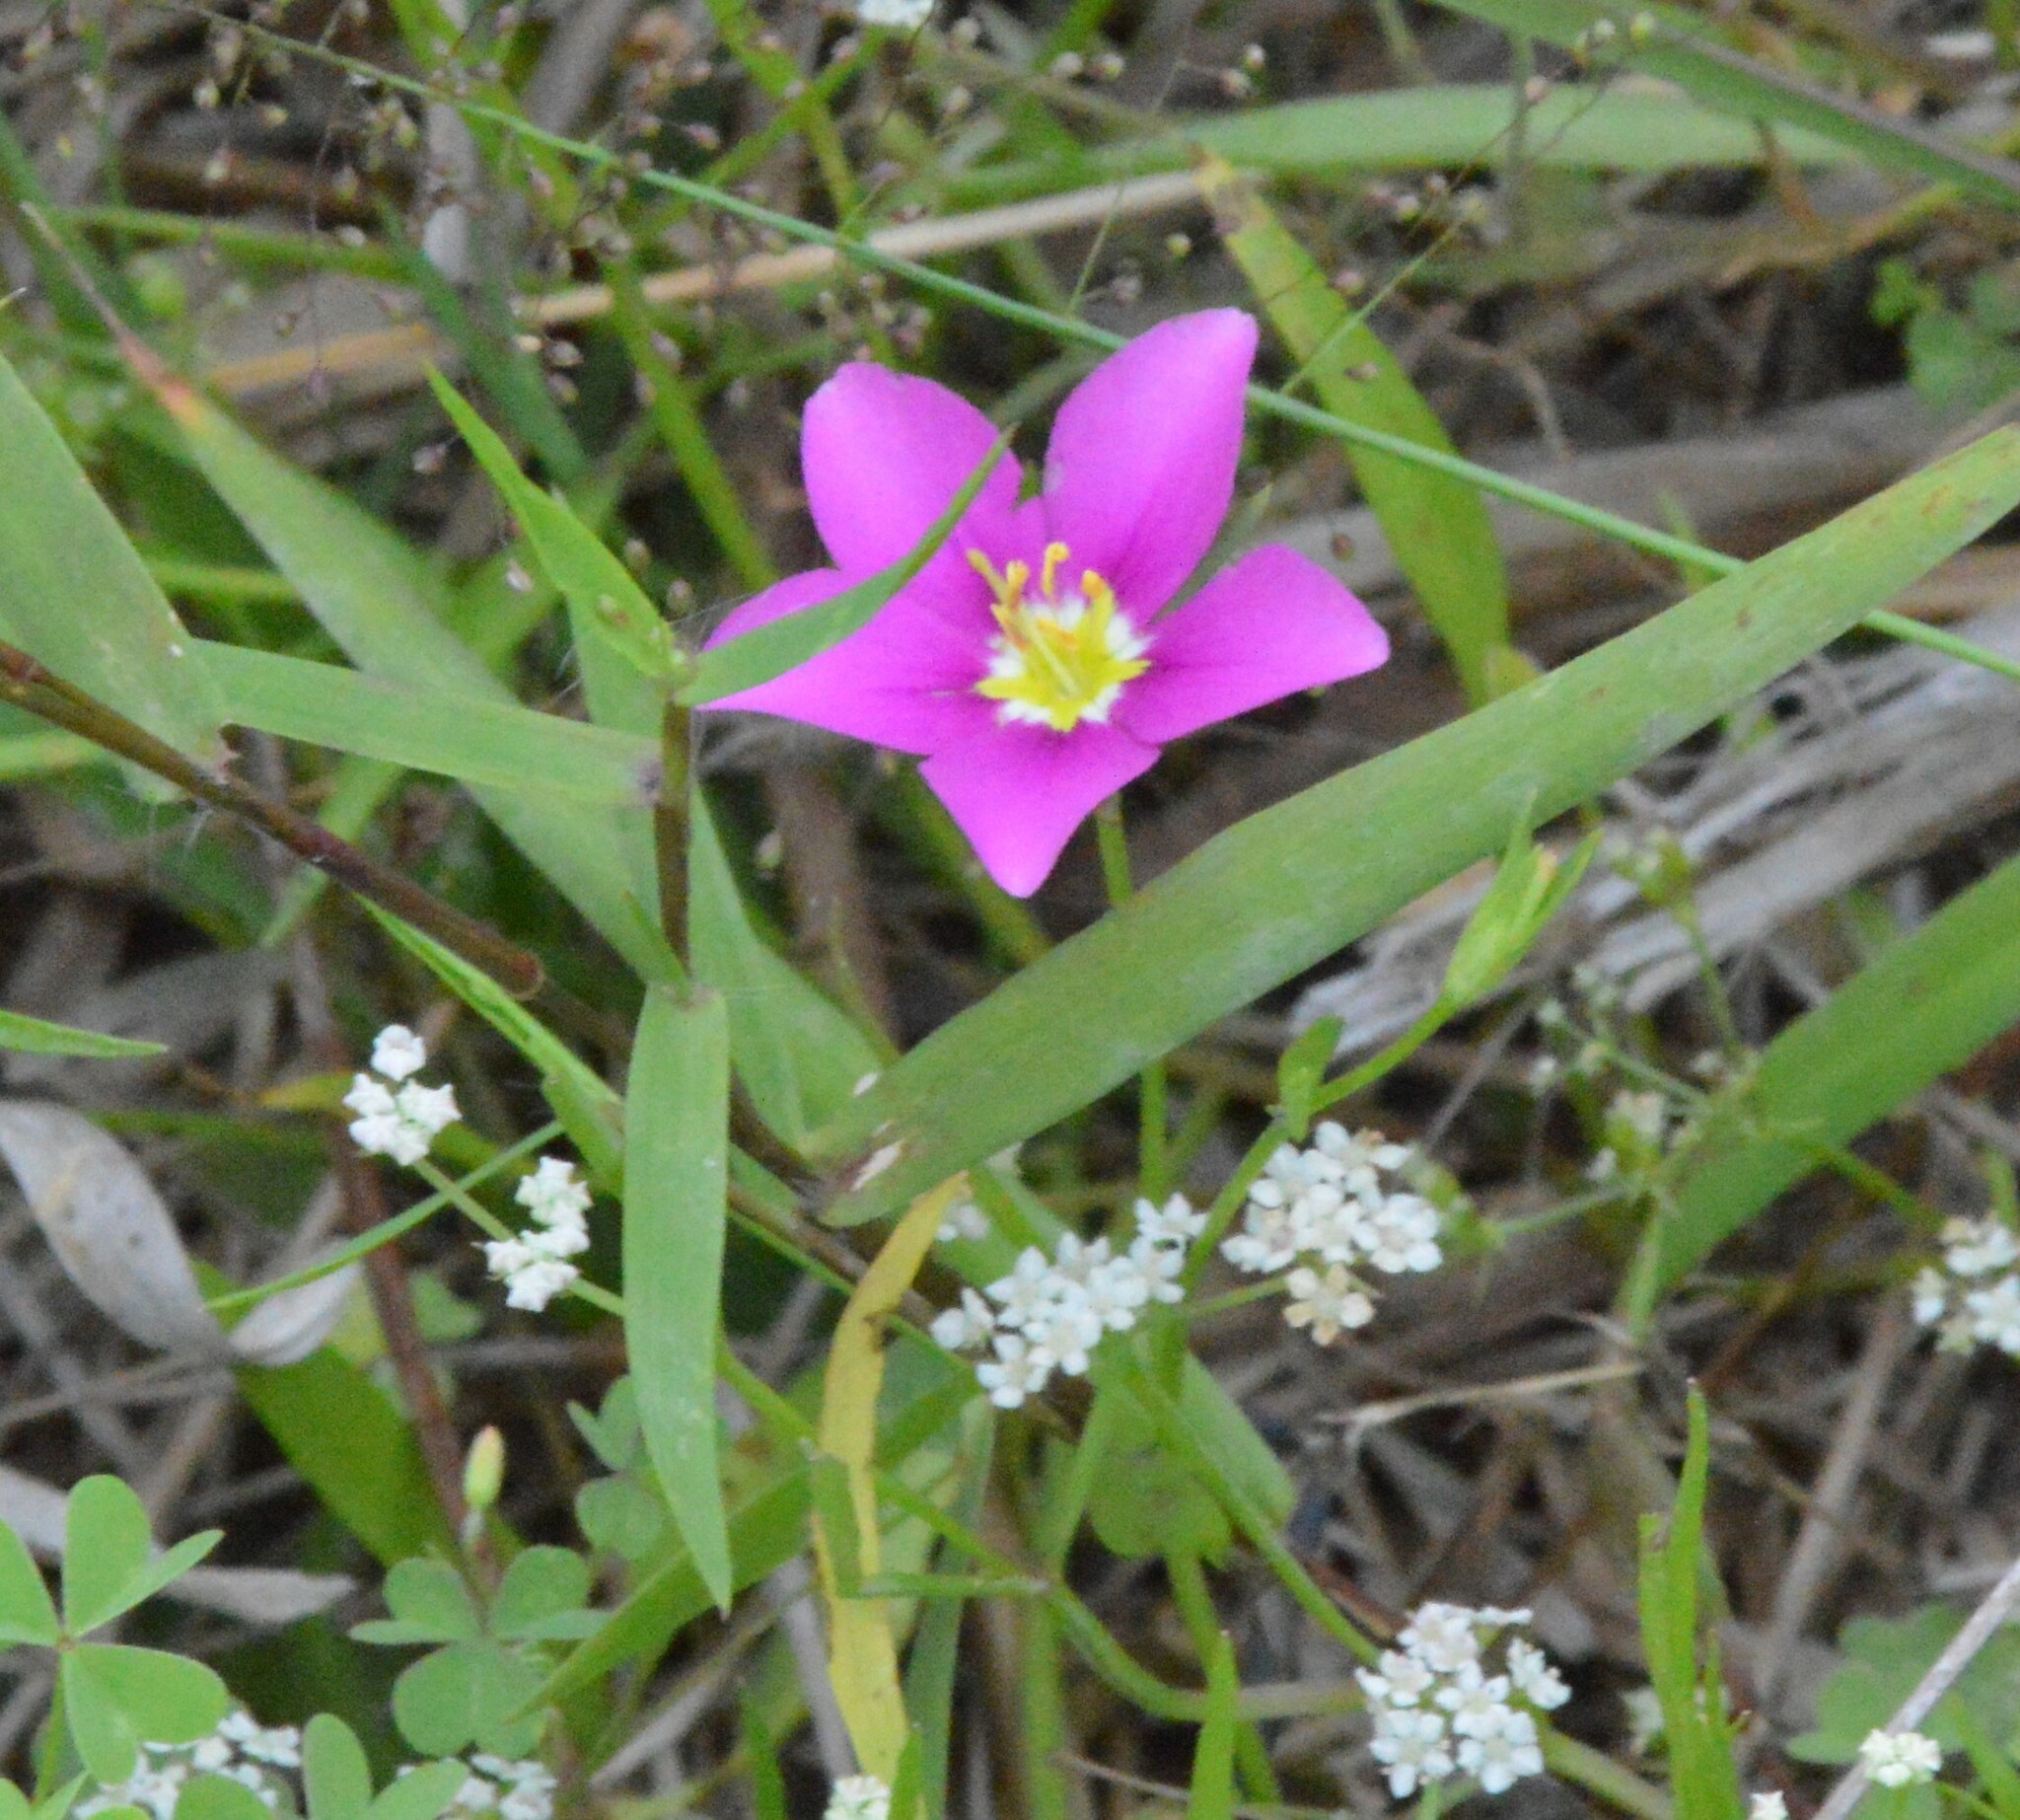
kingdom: Plantae
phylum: Tracheophyta
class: Magnoliopsida
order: Gentianales
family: Gentianaceae
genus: Sabatia
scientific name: Sabatia campestris
